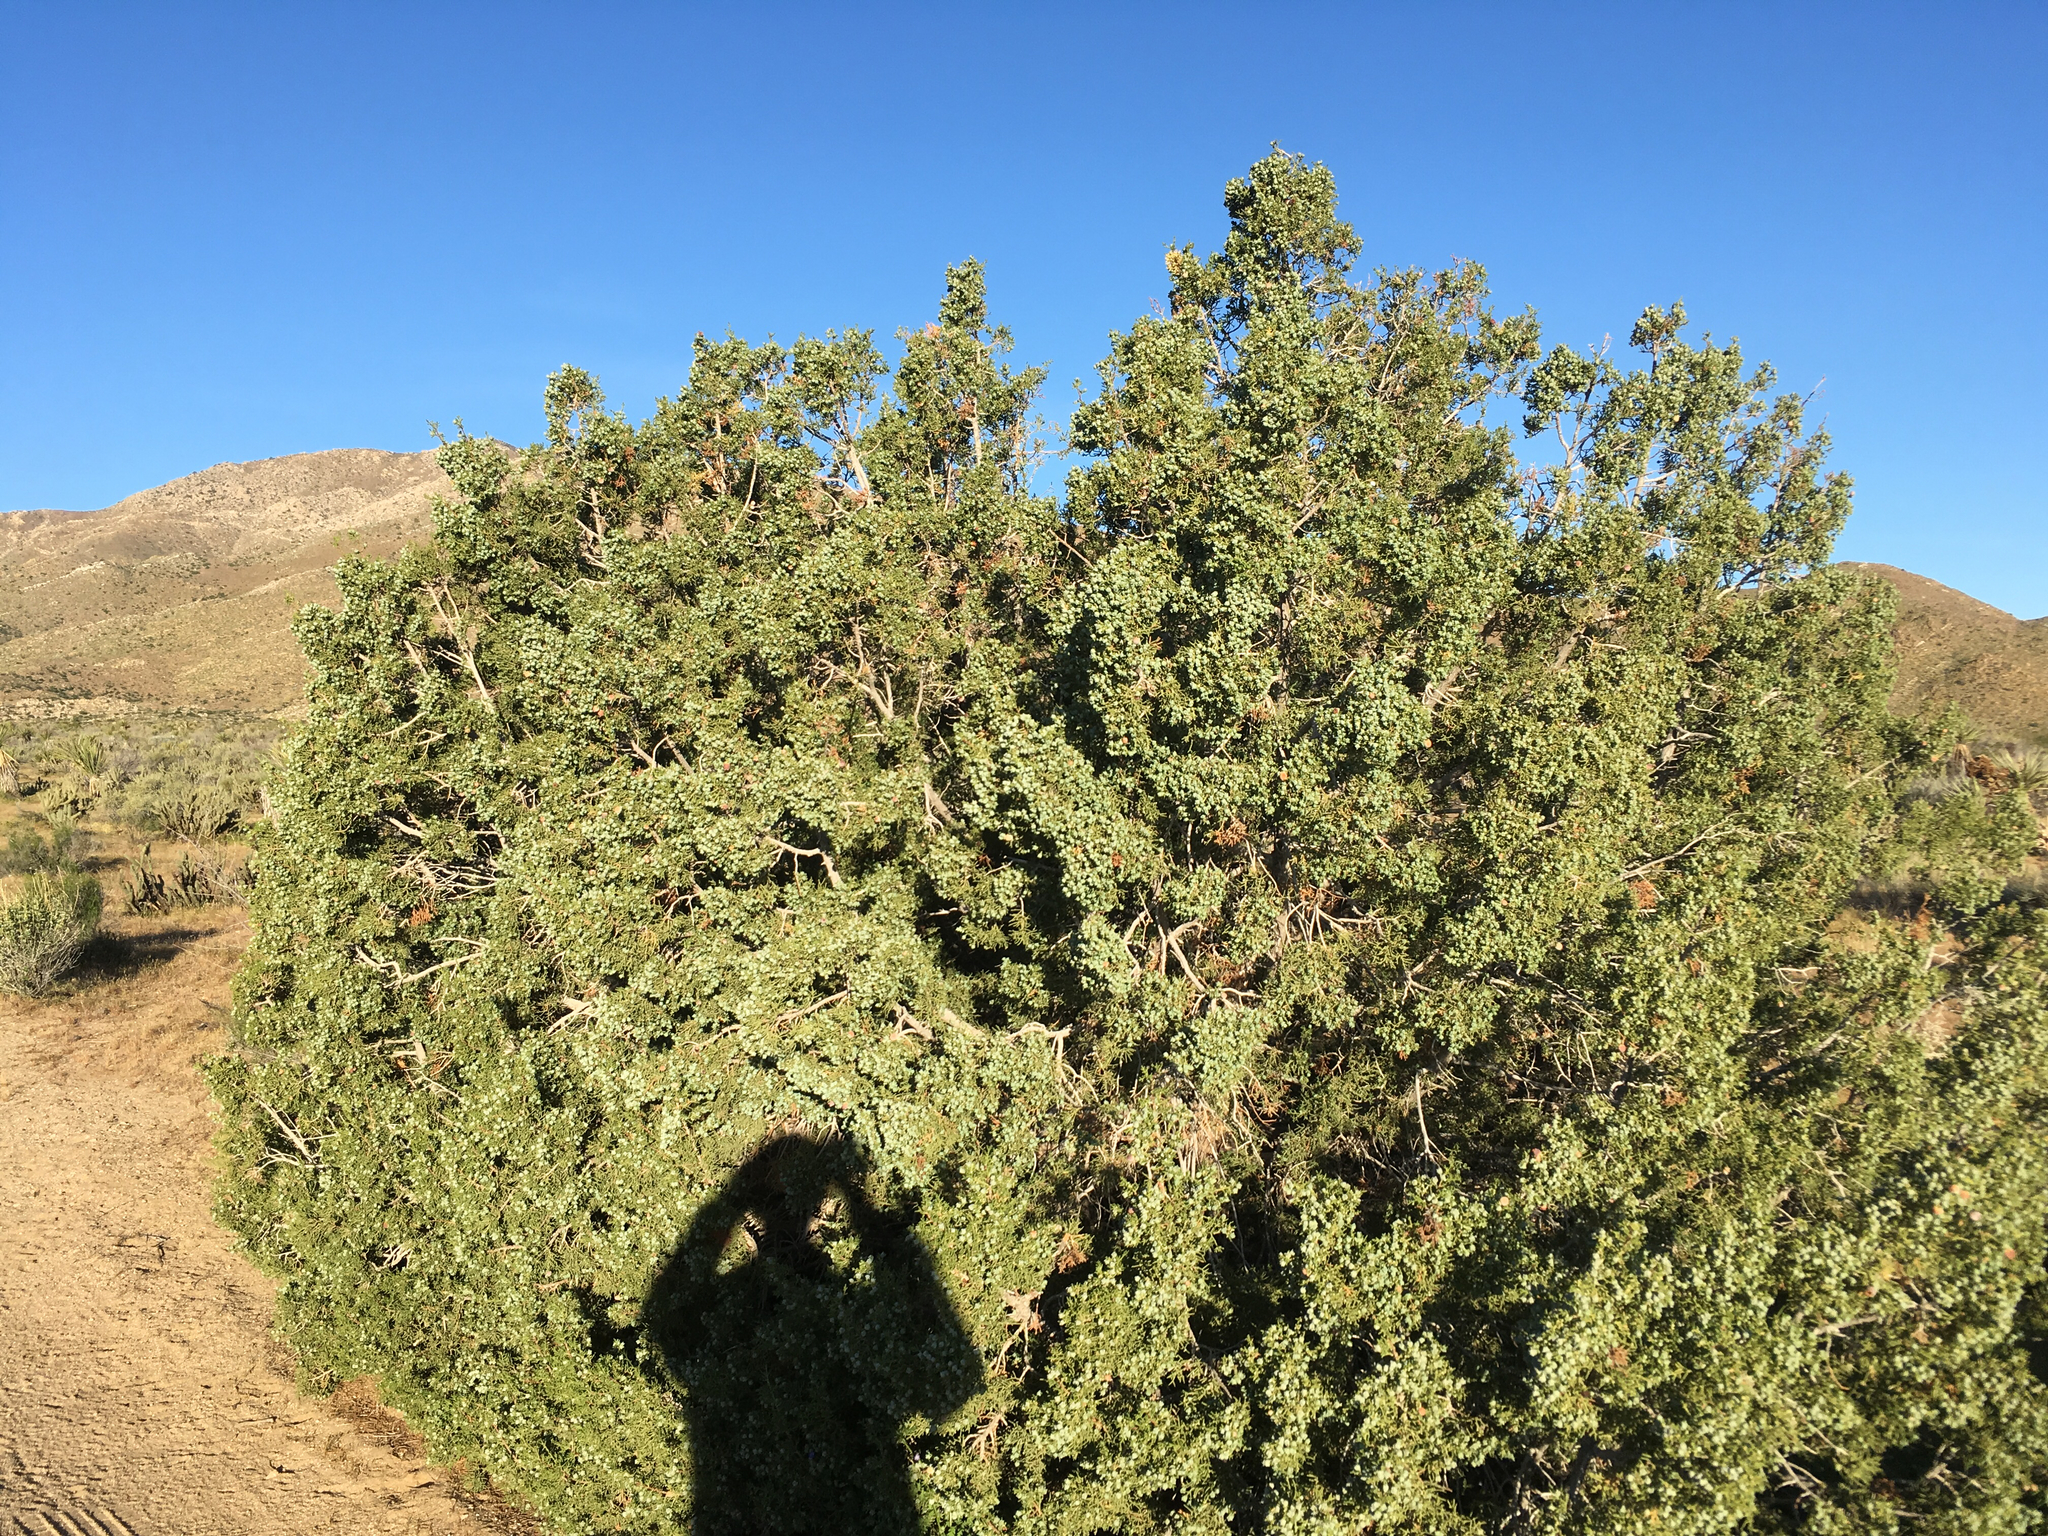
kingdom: Plantae
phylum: Tracheophyta
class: Pinopsida
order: Pinales
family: Cupressaceae
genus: Juniperus
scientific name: Juniperus californica
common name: California juniper
